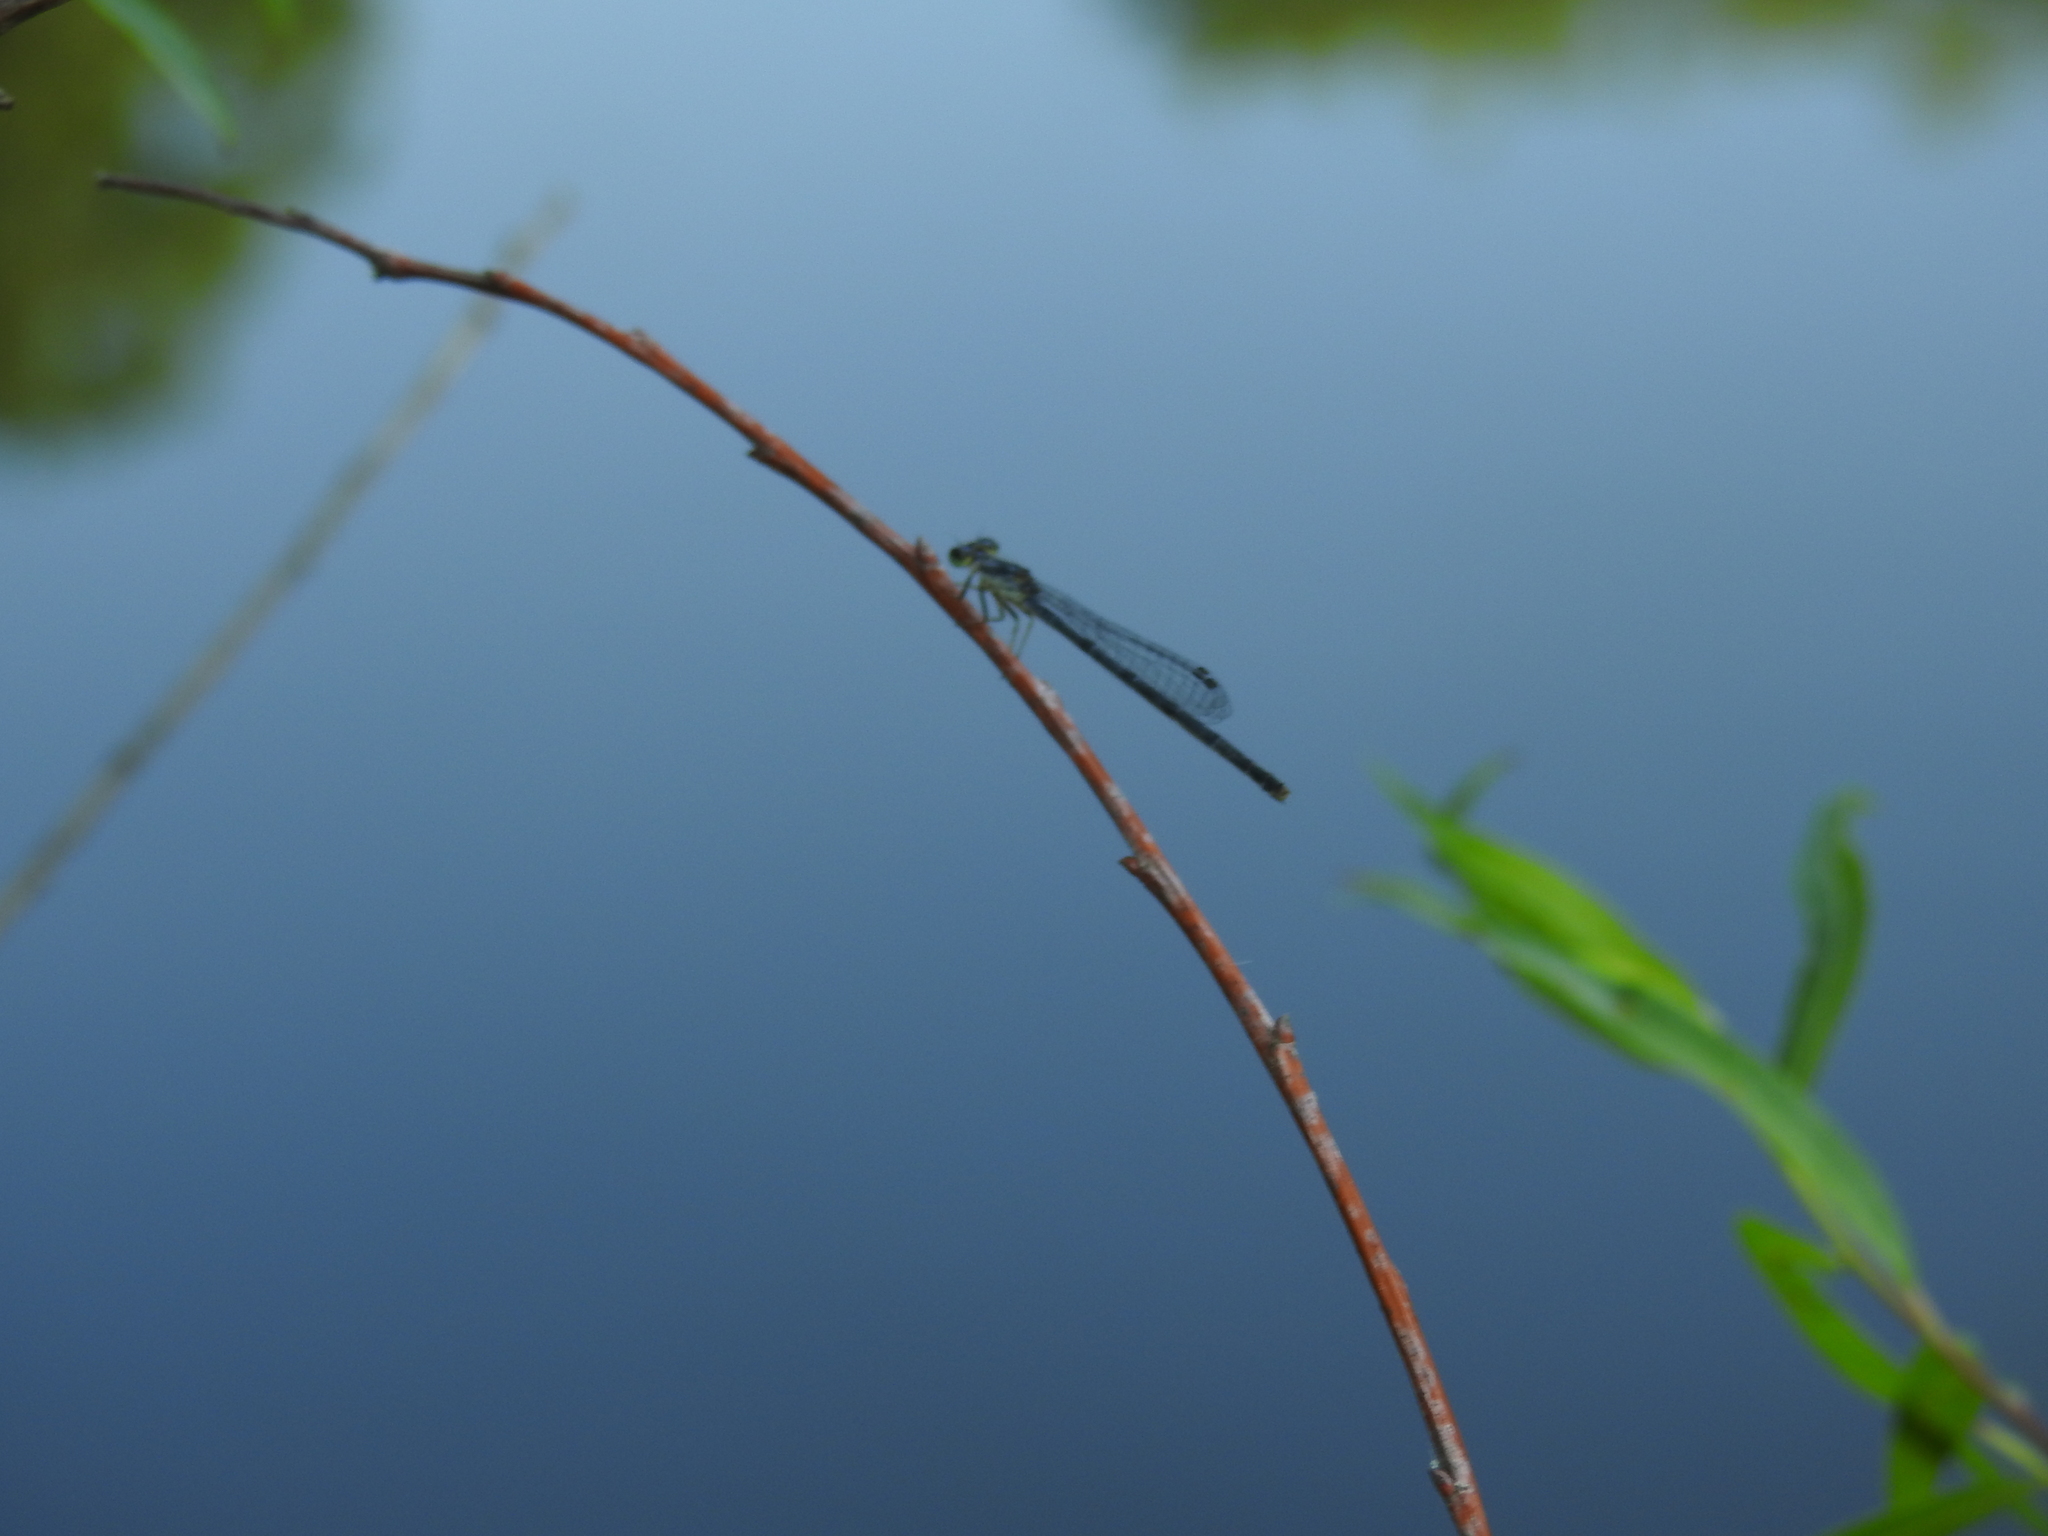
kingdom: Animalia
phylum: Arthropoda
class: Insecta
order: Odonata
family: Coenagrionidae
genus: Ischnura
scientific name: Ischnura posita
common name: Fragile forktail
